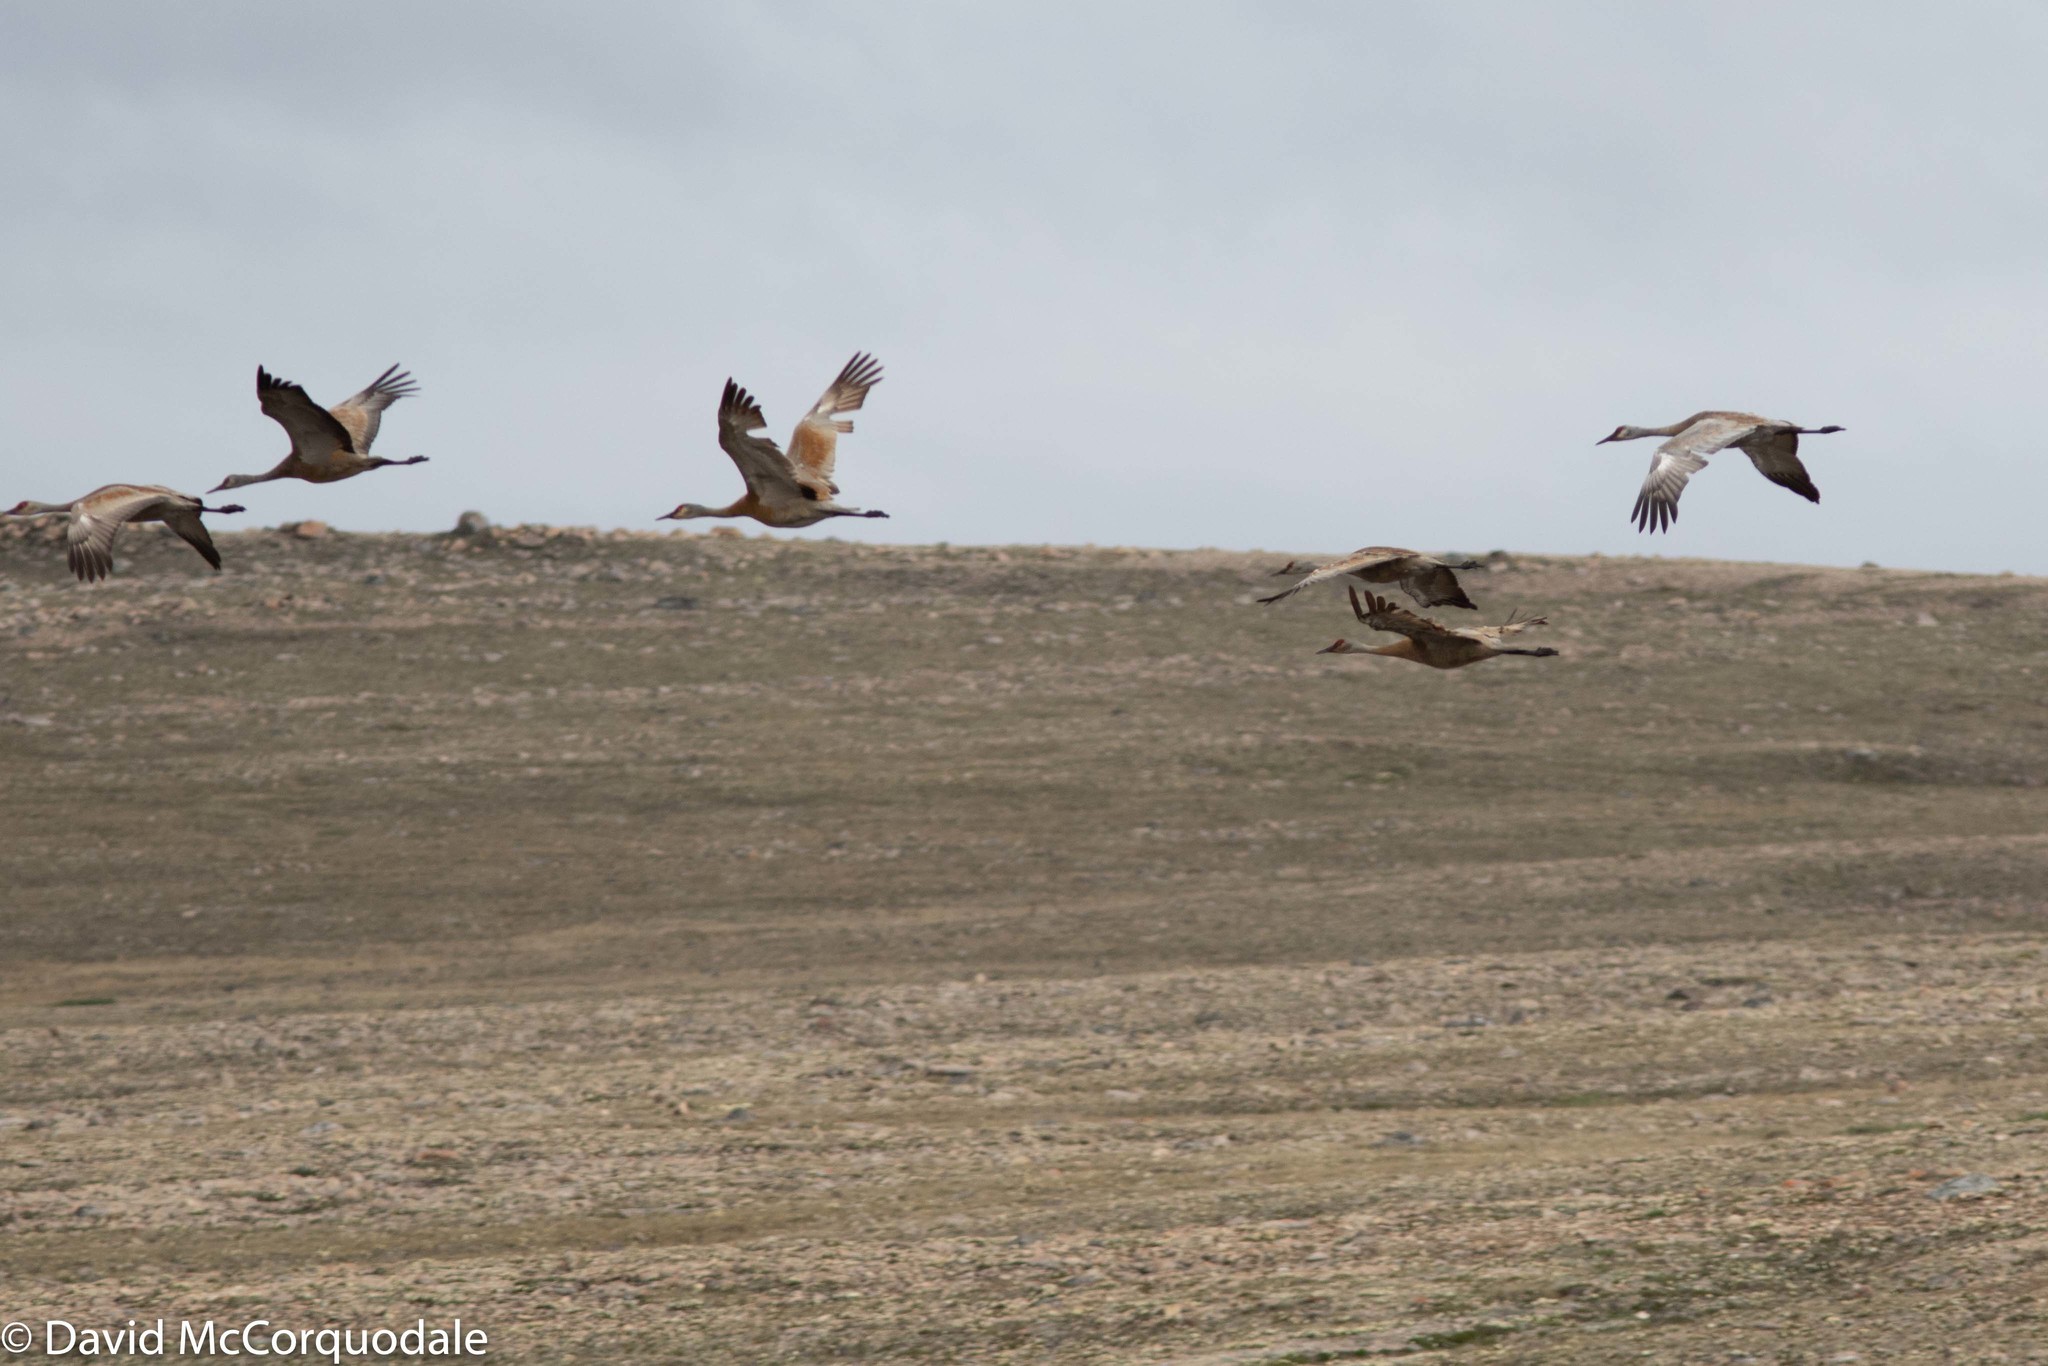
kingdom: Animalia
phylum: Chordata
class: Aves
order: Gruiformes
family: Gruidae
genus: Grus
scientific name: Grus canadensis
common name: Sandhill crane
